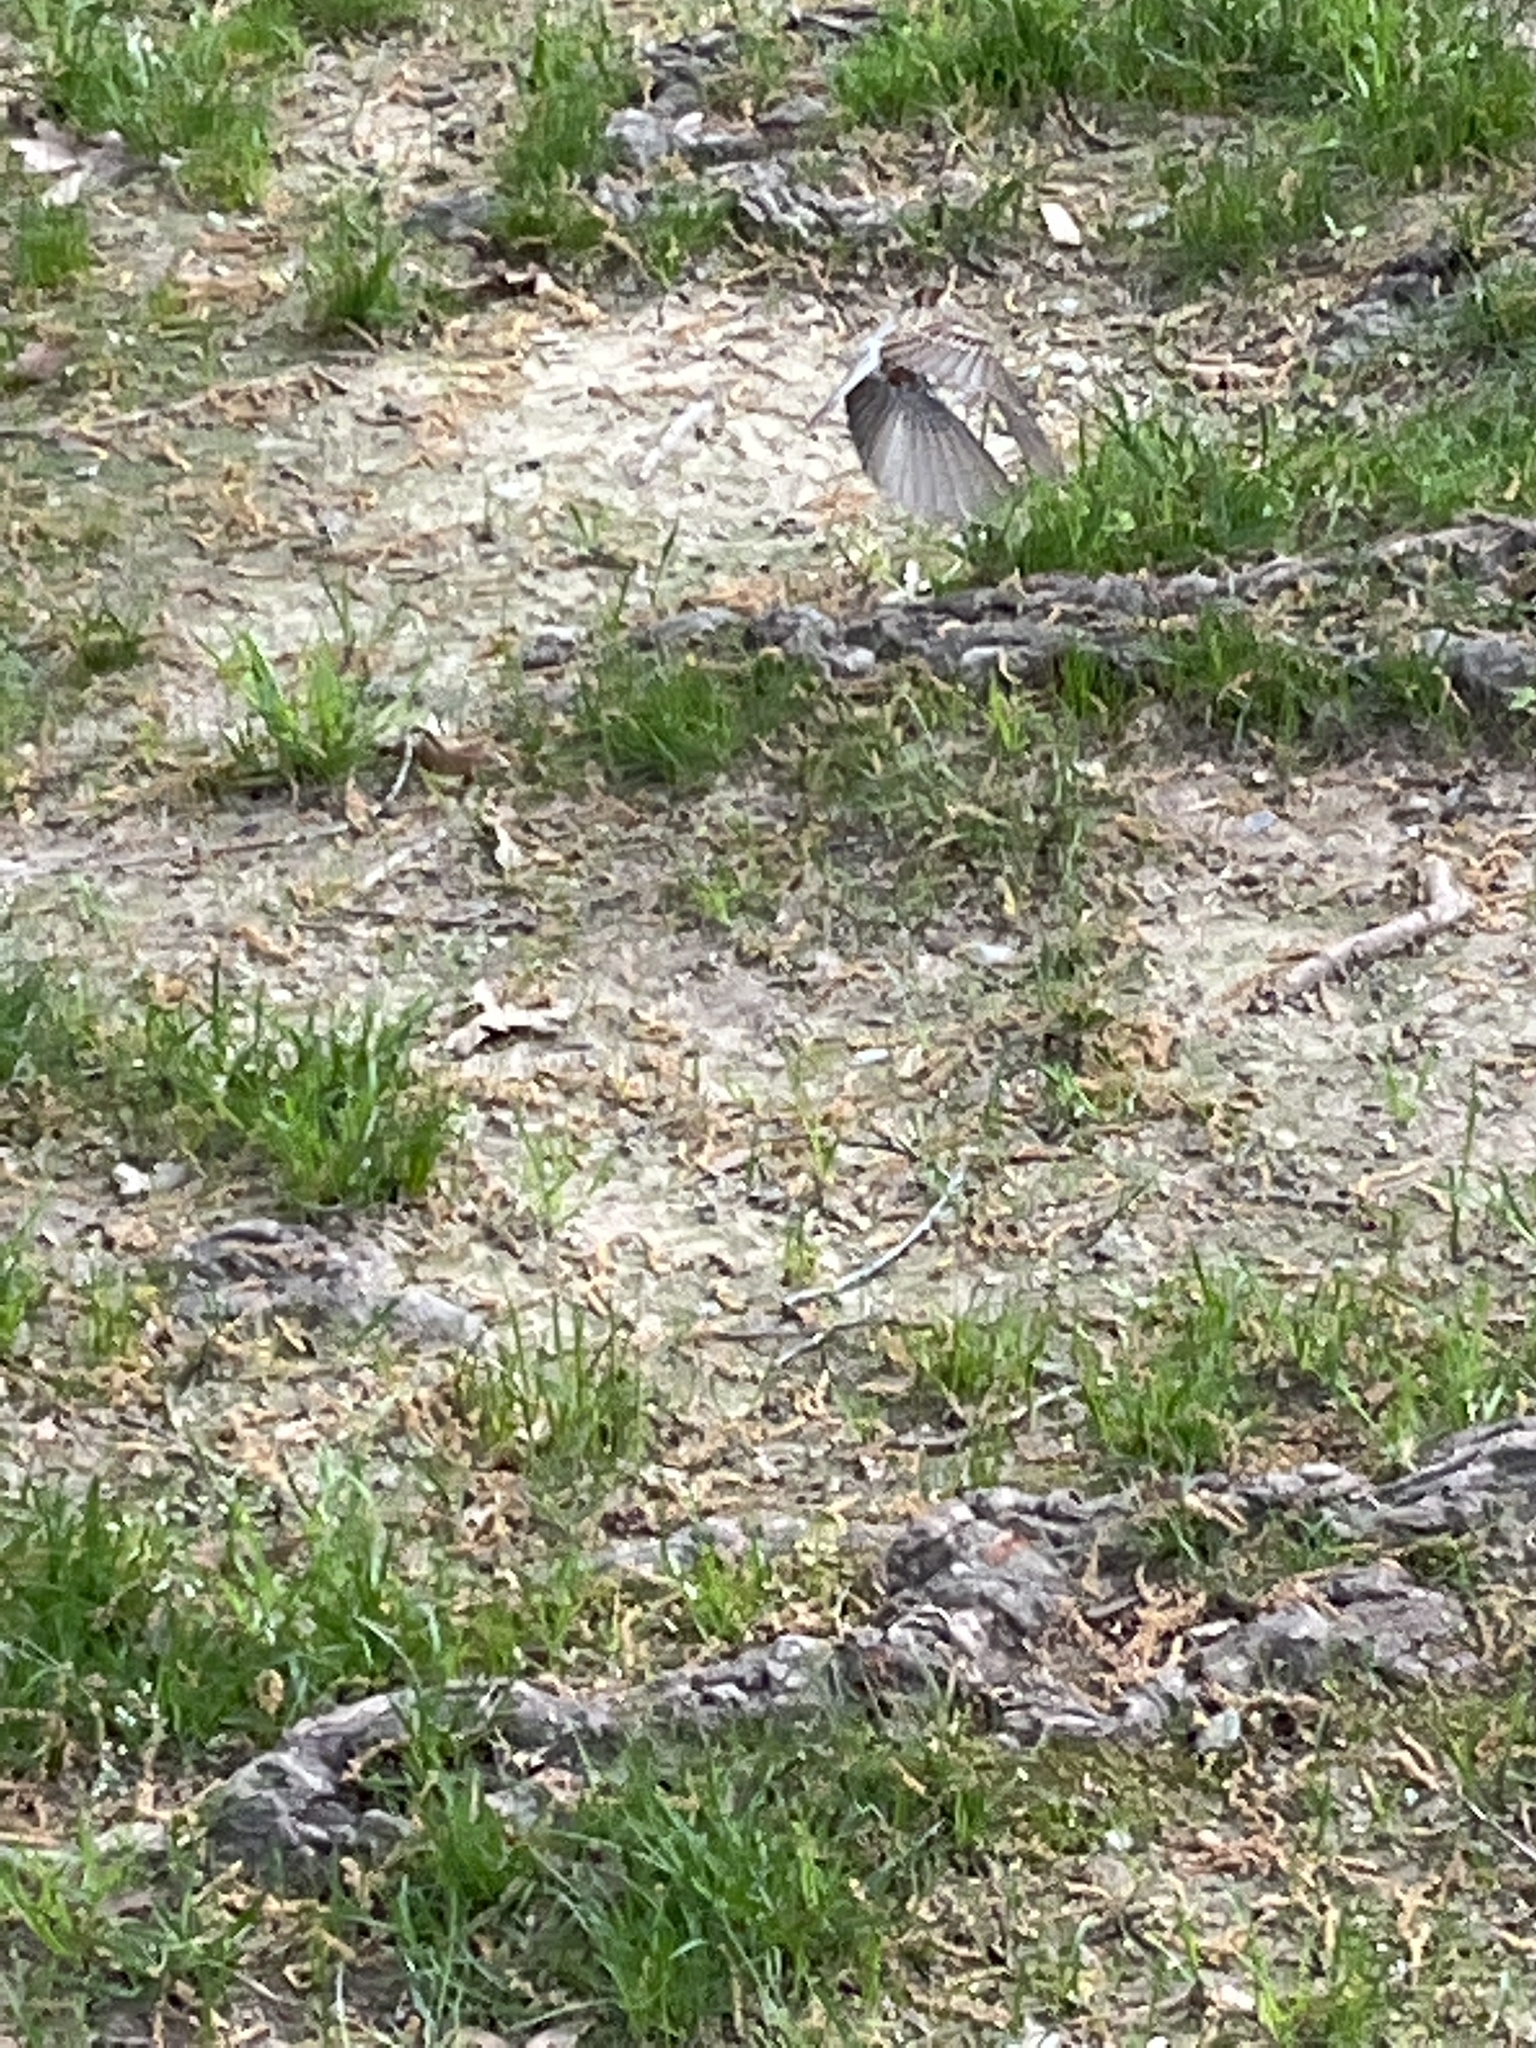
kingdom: Animalia
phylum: Chordata
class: Aves
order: Passeriformes
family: Passerellidae
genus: Spizella
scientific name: Spizella passerina
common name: Chipping sparrow
